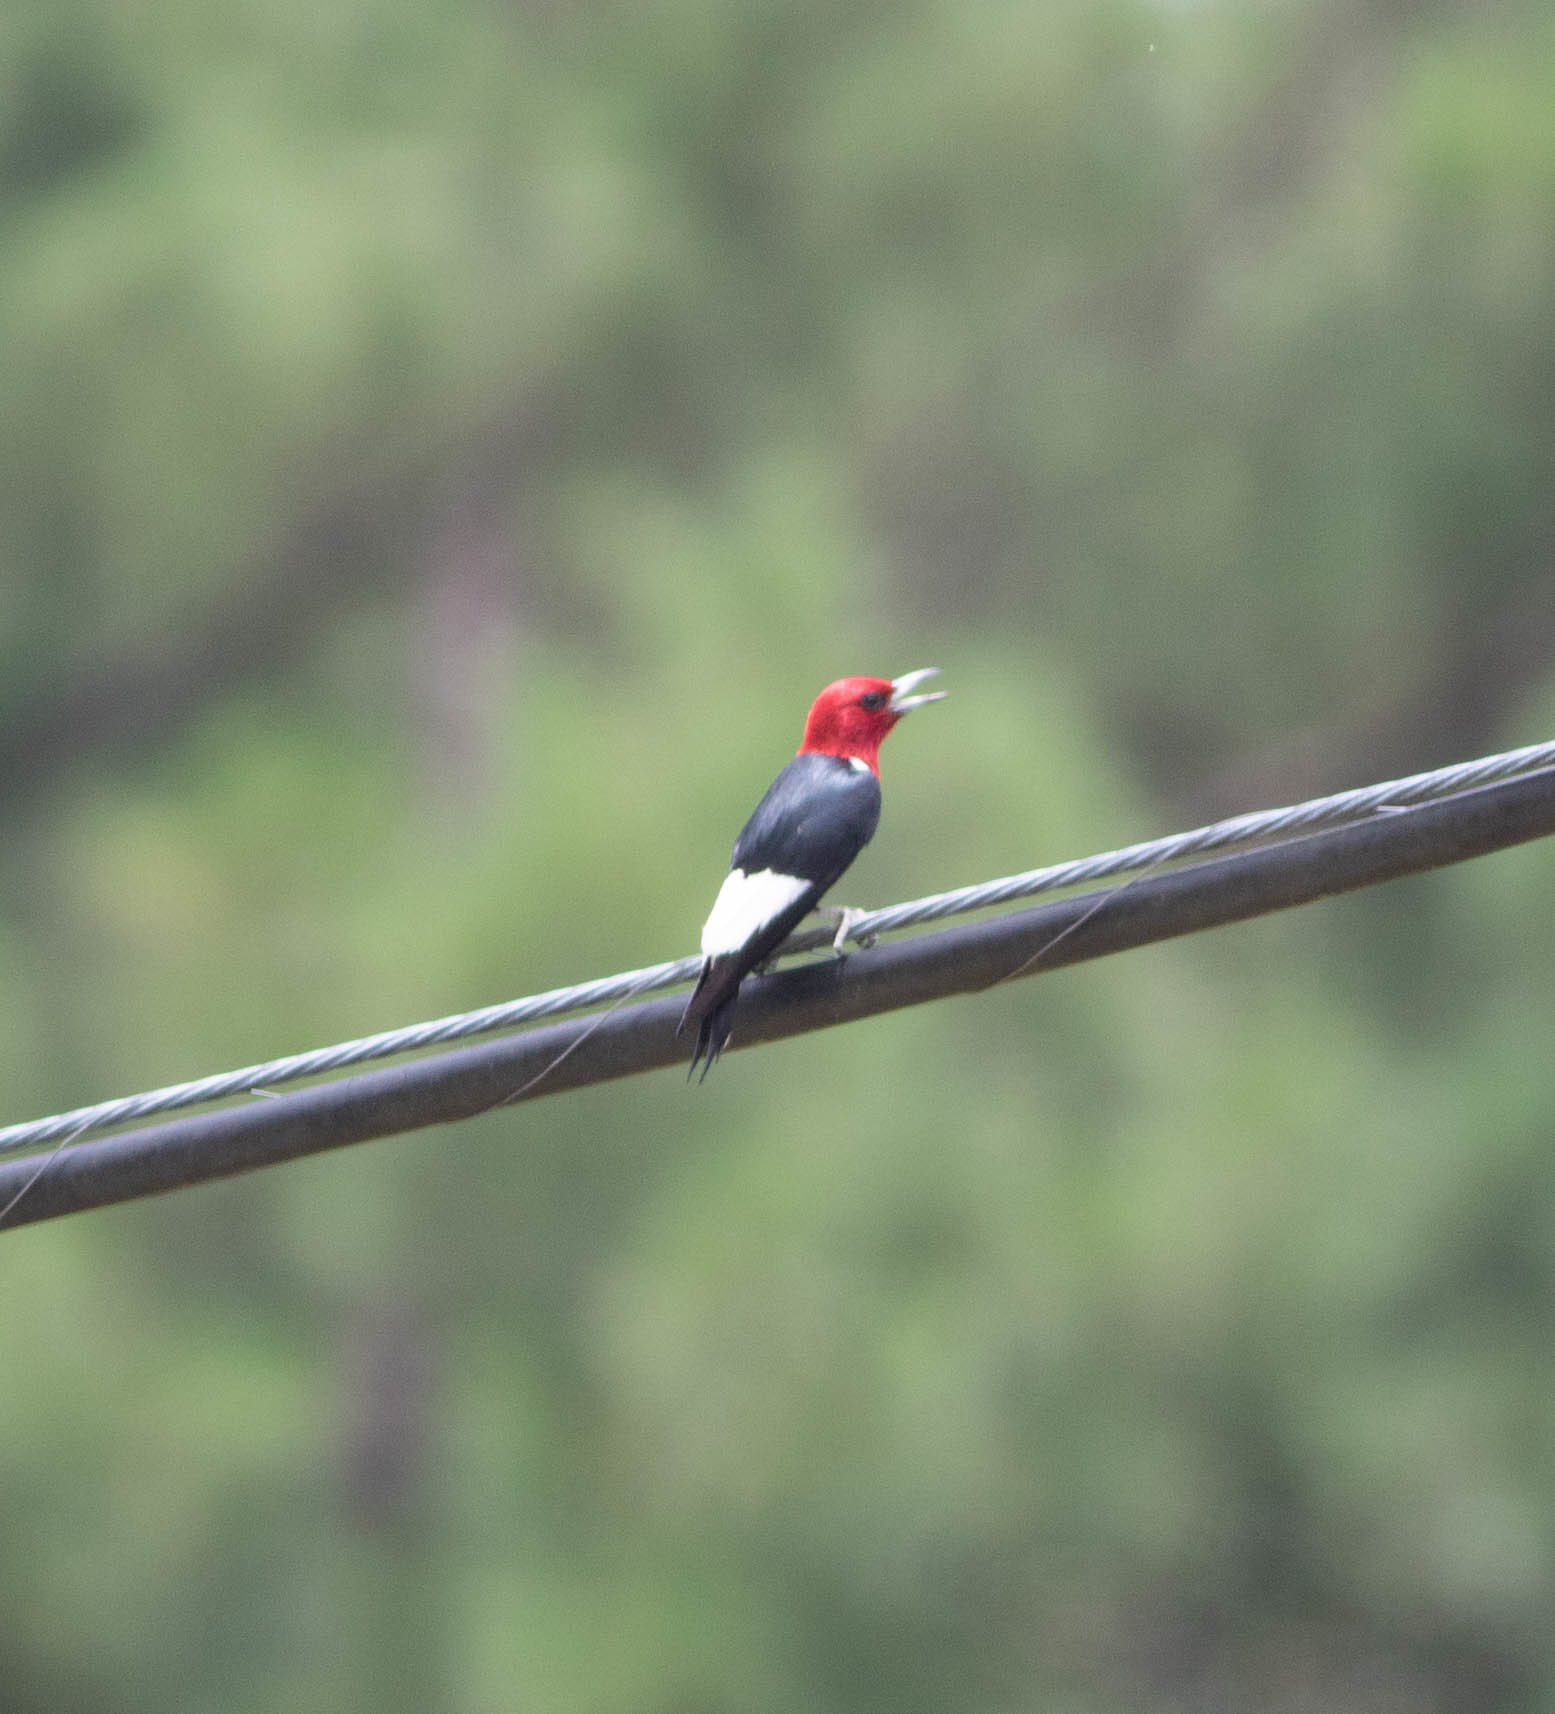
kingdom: Animalia
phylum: Chordata
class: Aves
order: Piciformes
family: Picidae
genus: Melanerpes
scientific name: Melanerpes erythrocephalus
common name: Red-headed woodpecker
